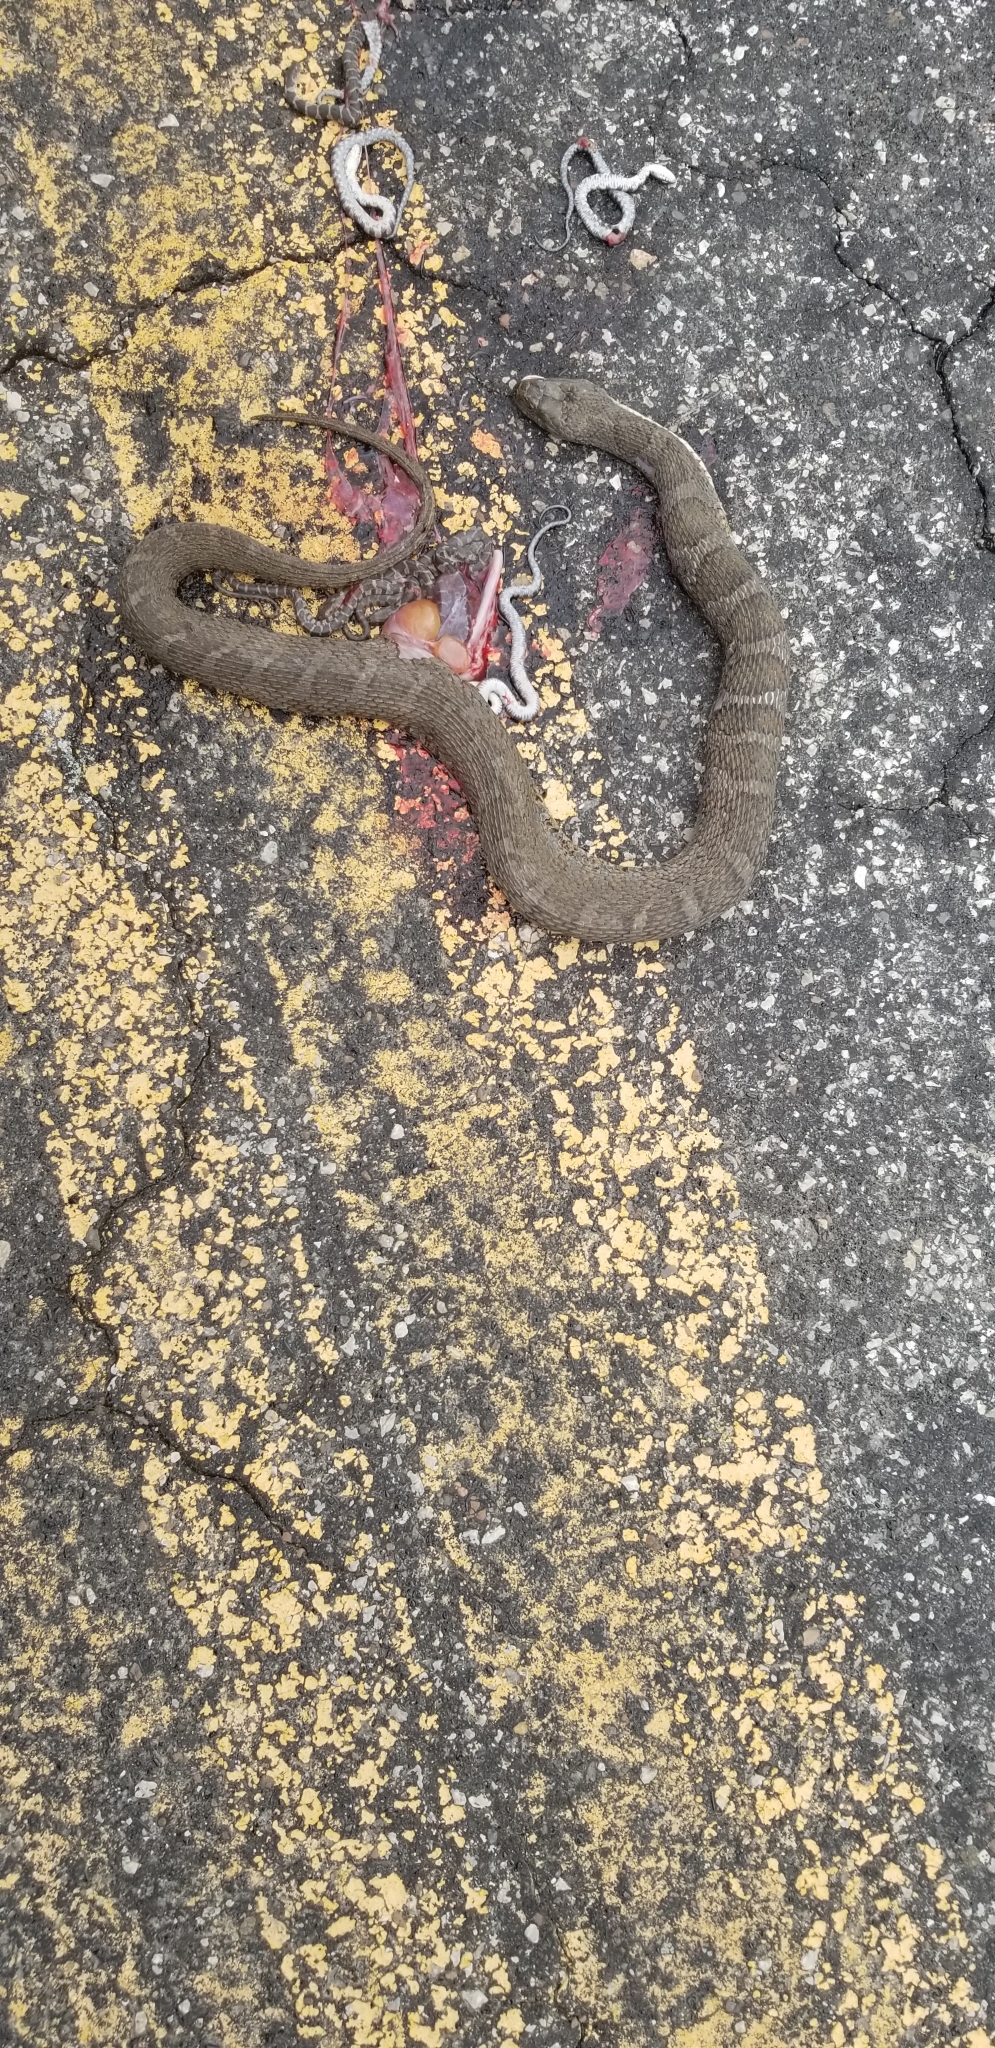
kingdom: Animalia
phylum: Chordata
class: Squamata
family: Colubridae
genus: Nerodia
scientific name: Nerodia sipedon
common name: Northern water snake
